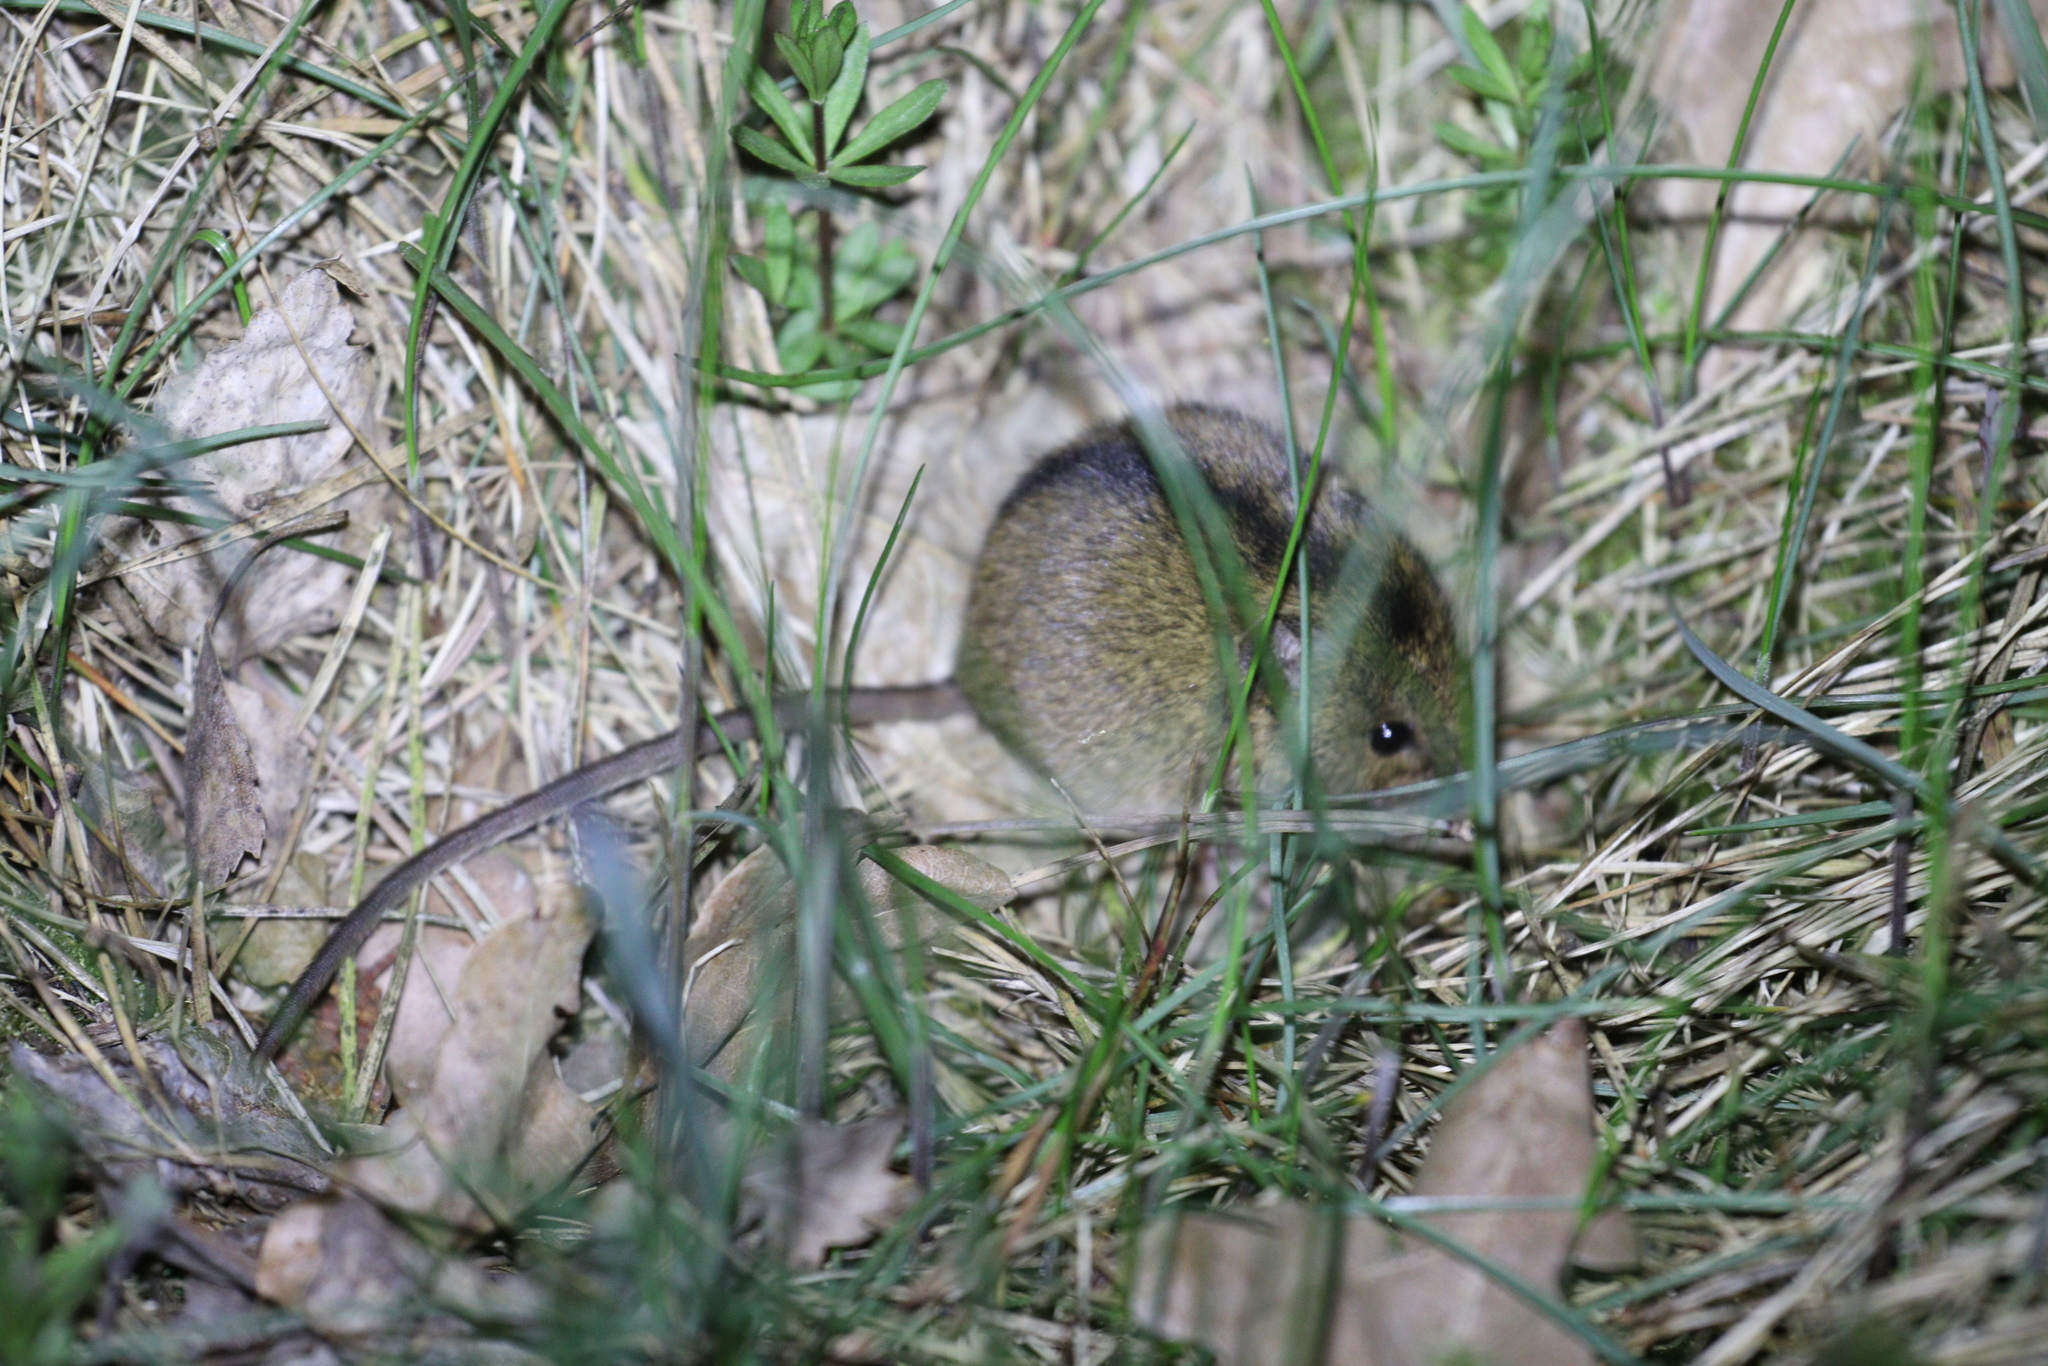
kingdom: Animalia
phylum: Chordata
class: Mammalia
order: Rodentia
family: Dipodidae
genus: Sicista
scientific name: Sicista betulina
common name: Northern birch mouse
